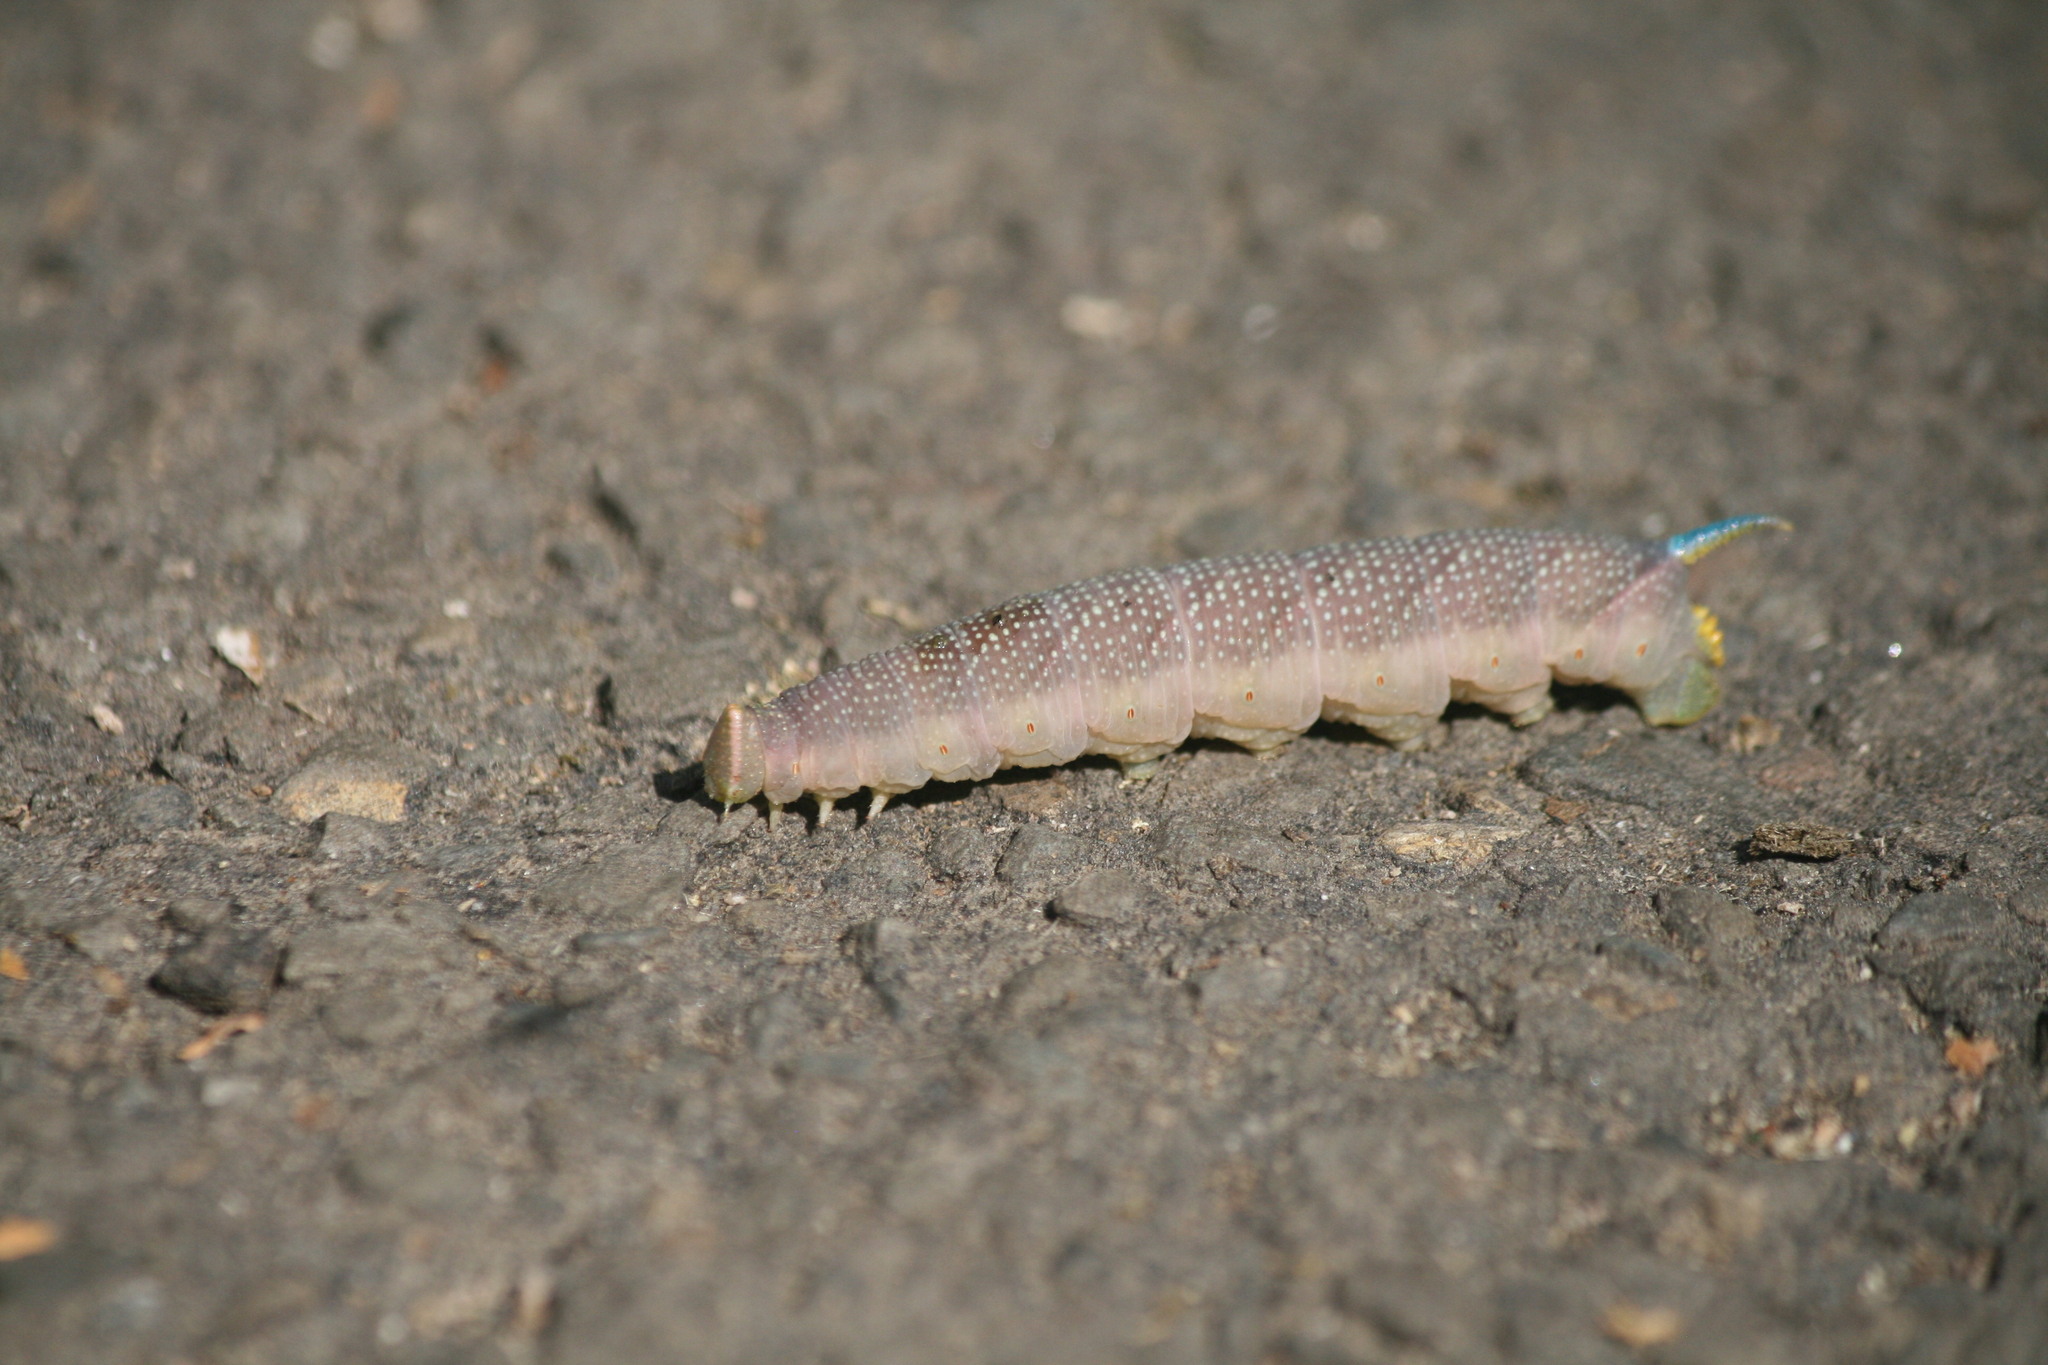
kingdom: Animalia
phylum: Arthropoda
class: Insecta
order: Lepidoptera
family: Sphingidae
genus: Mimas
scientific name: Mimas tiliae
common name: Lime hawk-moth
